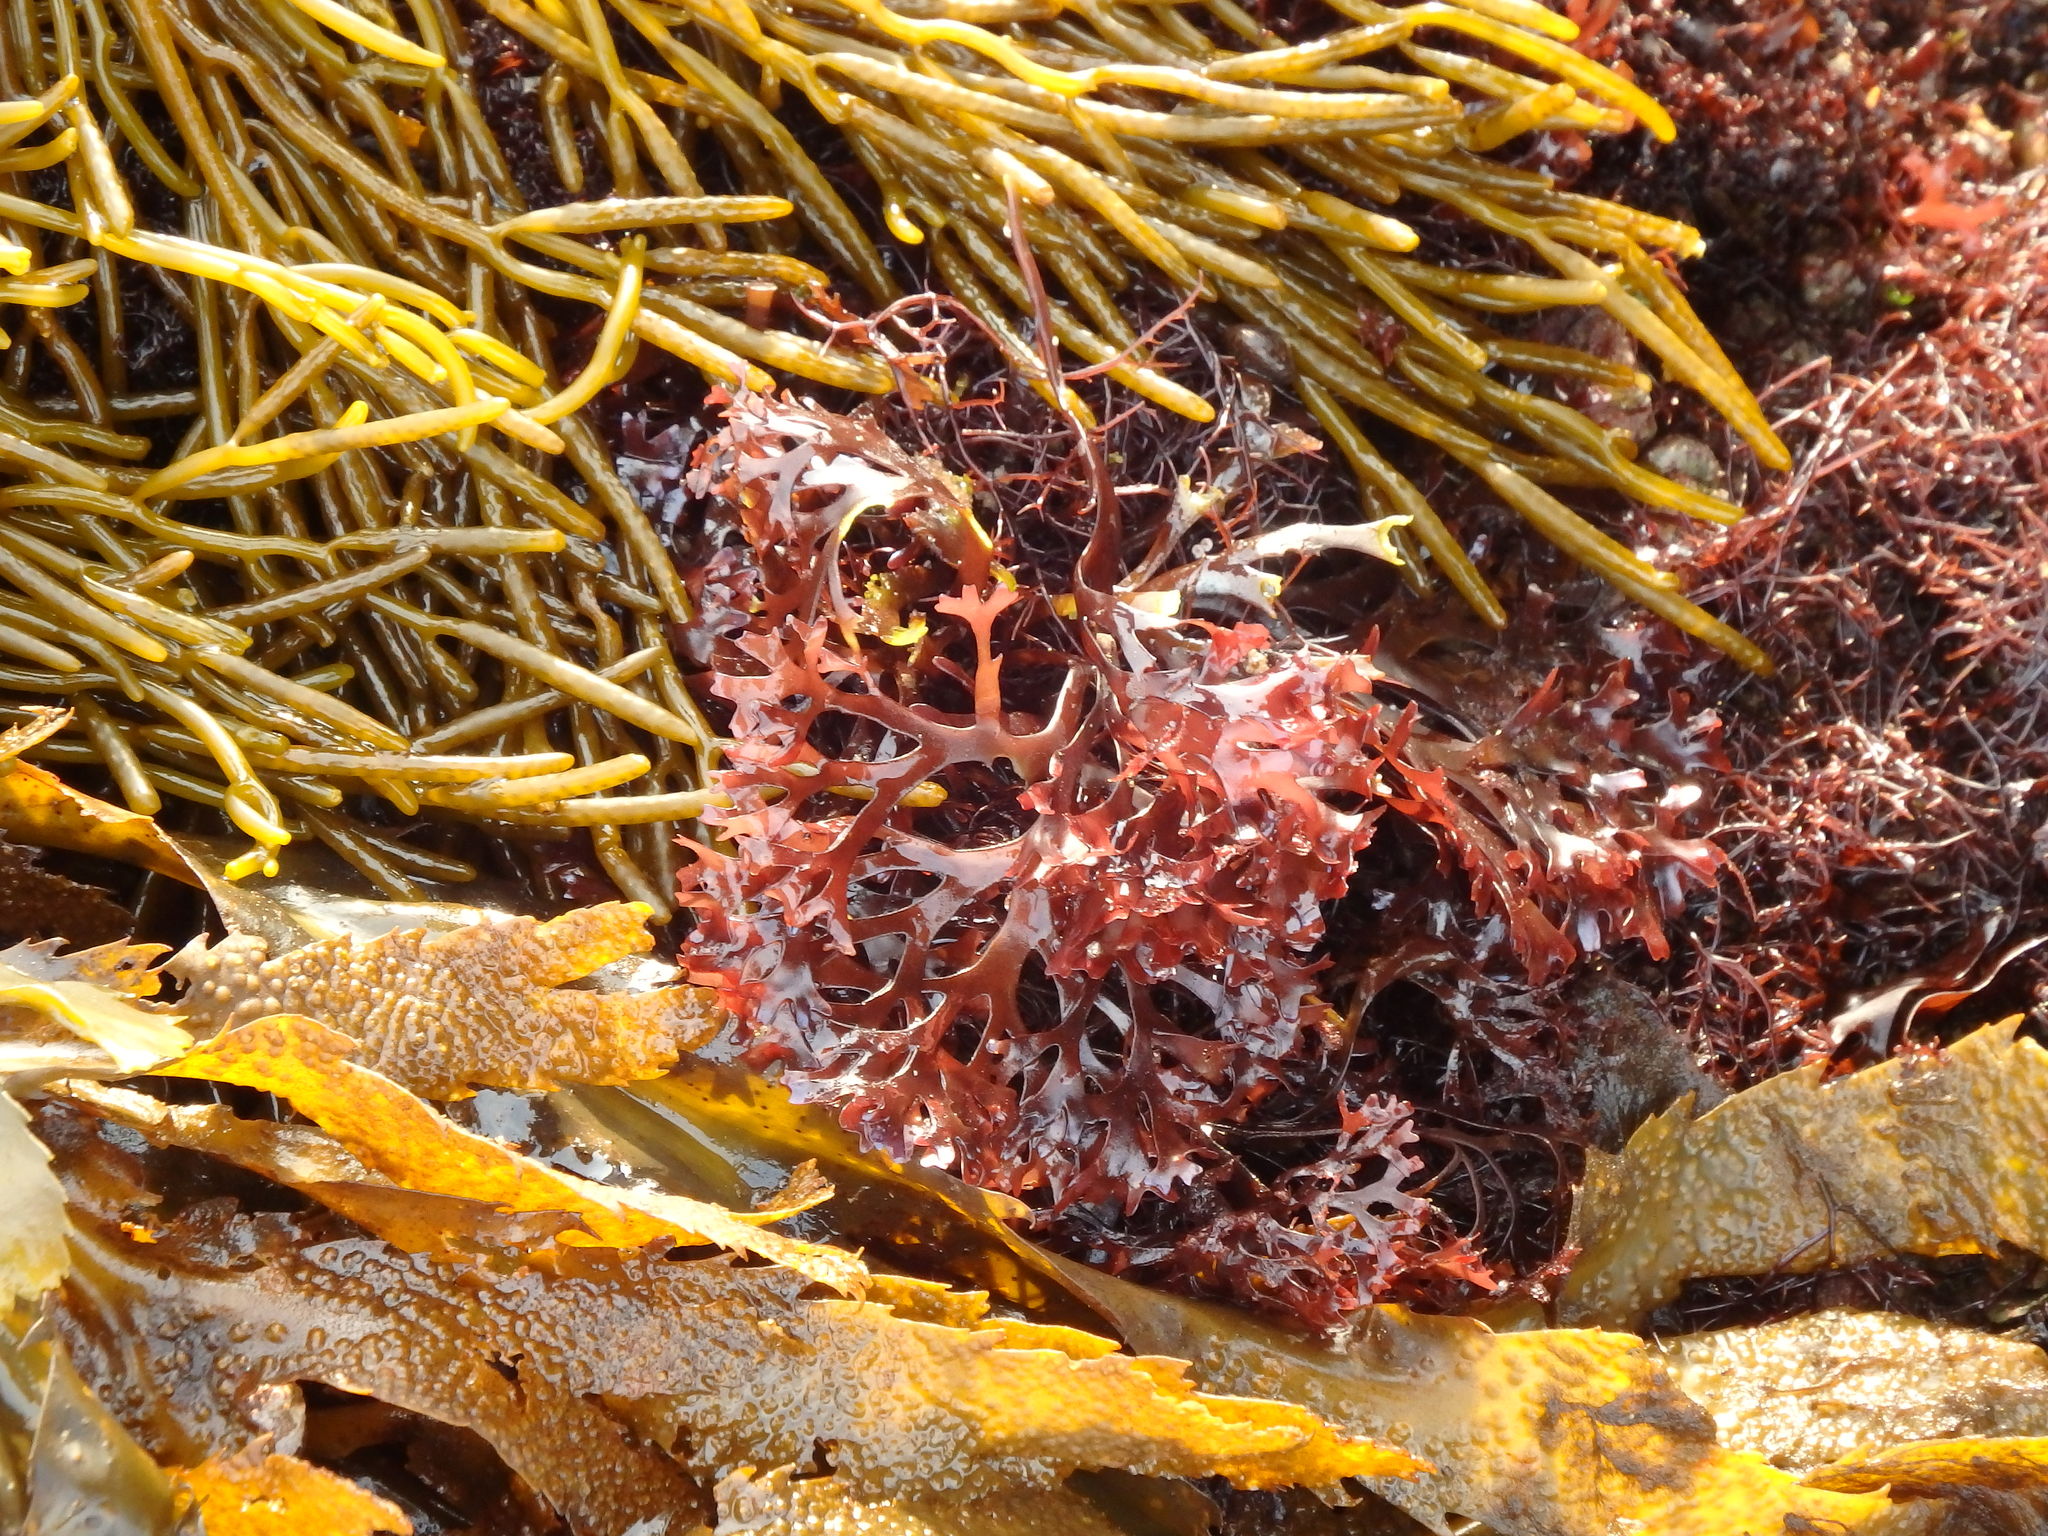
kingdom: Plantae
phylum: Rhodophyta
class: Florideophyceae
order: Gigartinales
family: Gigartinaceae
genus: Chondrus
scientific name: Chondrus crispus
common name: Carrageen
